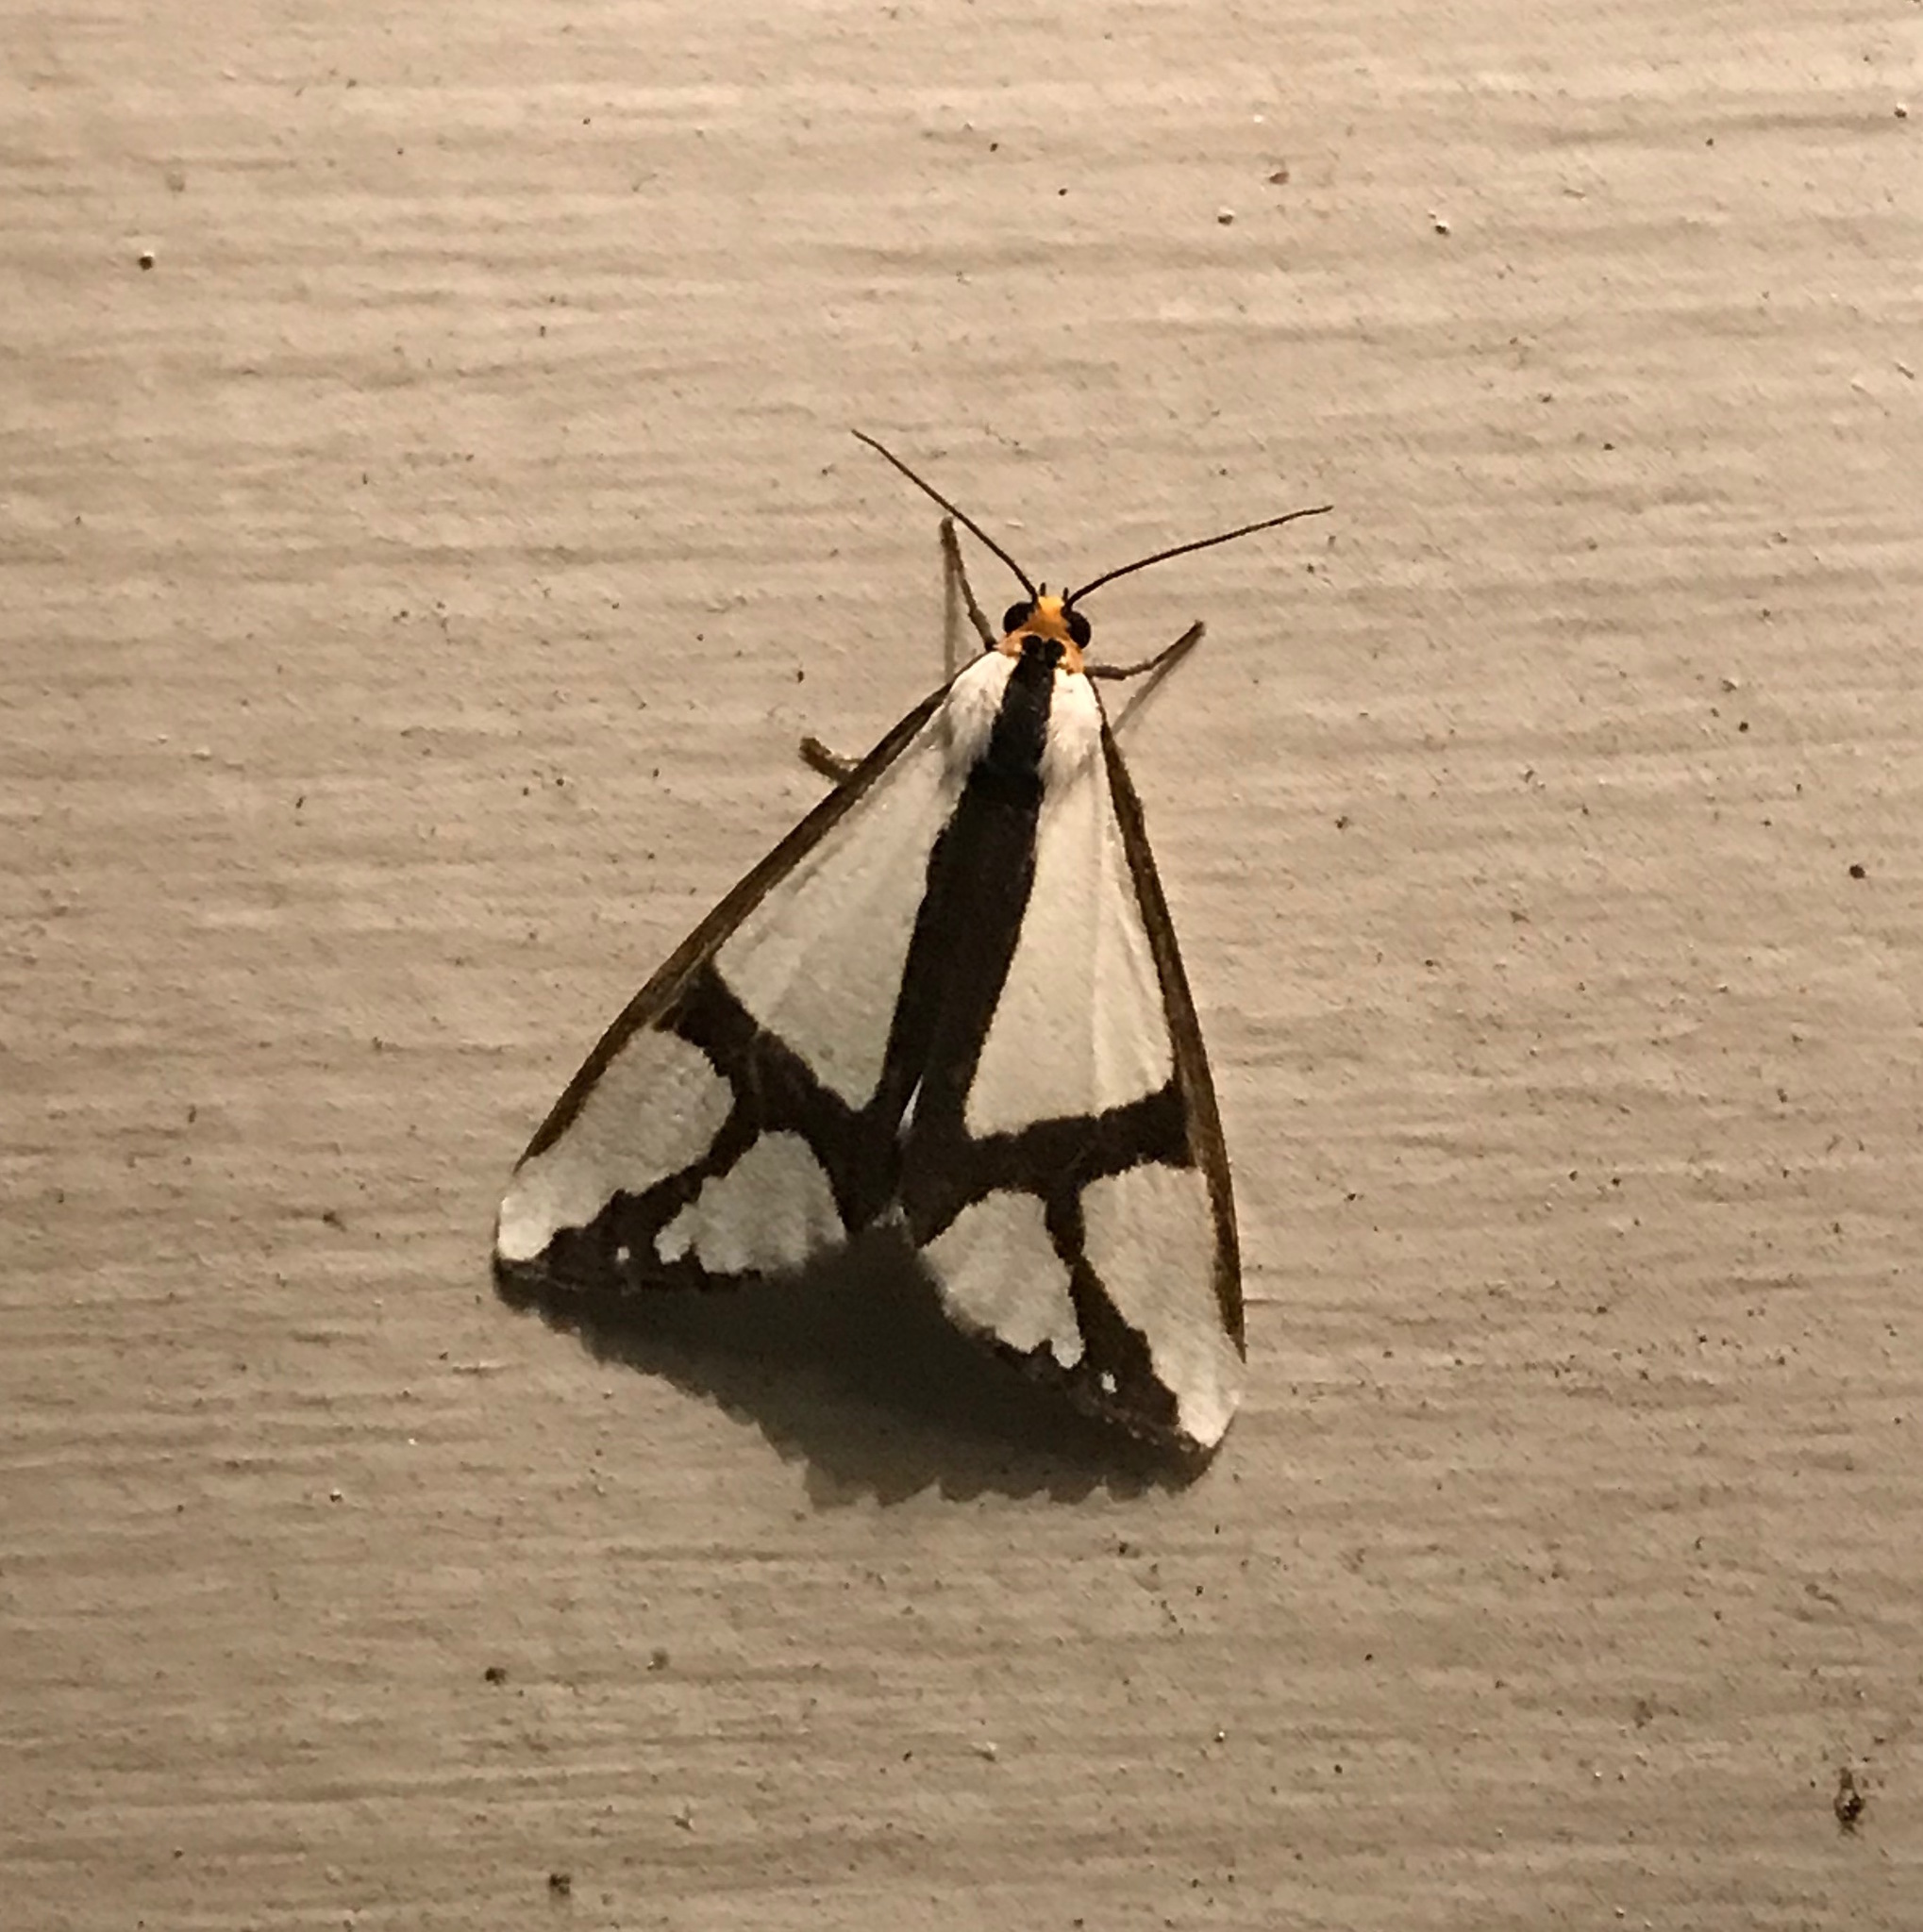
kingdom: Animalia
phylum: Arthropoda
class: Insecta
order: Lepidoptera
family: Erebidae
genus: Haploa
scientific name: Haploa contigua
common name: Neighbor moth
